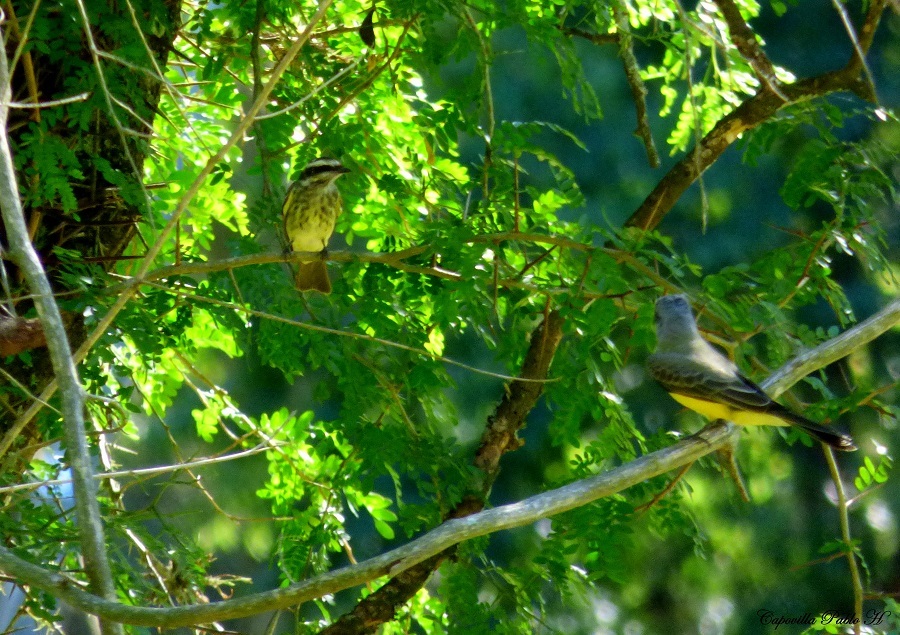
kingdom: Animalia
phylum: Chordata
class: Aves
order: Passeriformes
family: Tyrannidae
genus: Legatus
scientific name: Legatus leucophaius
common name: Piratic flycatcher
